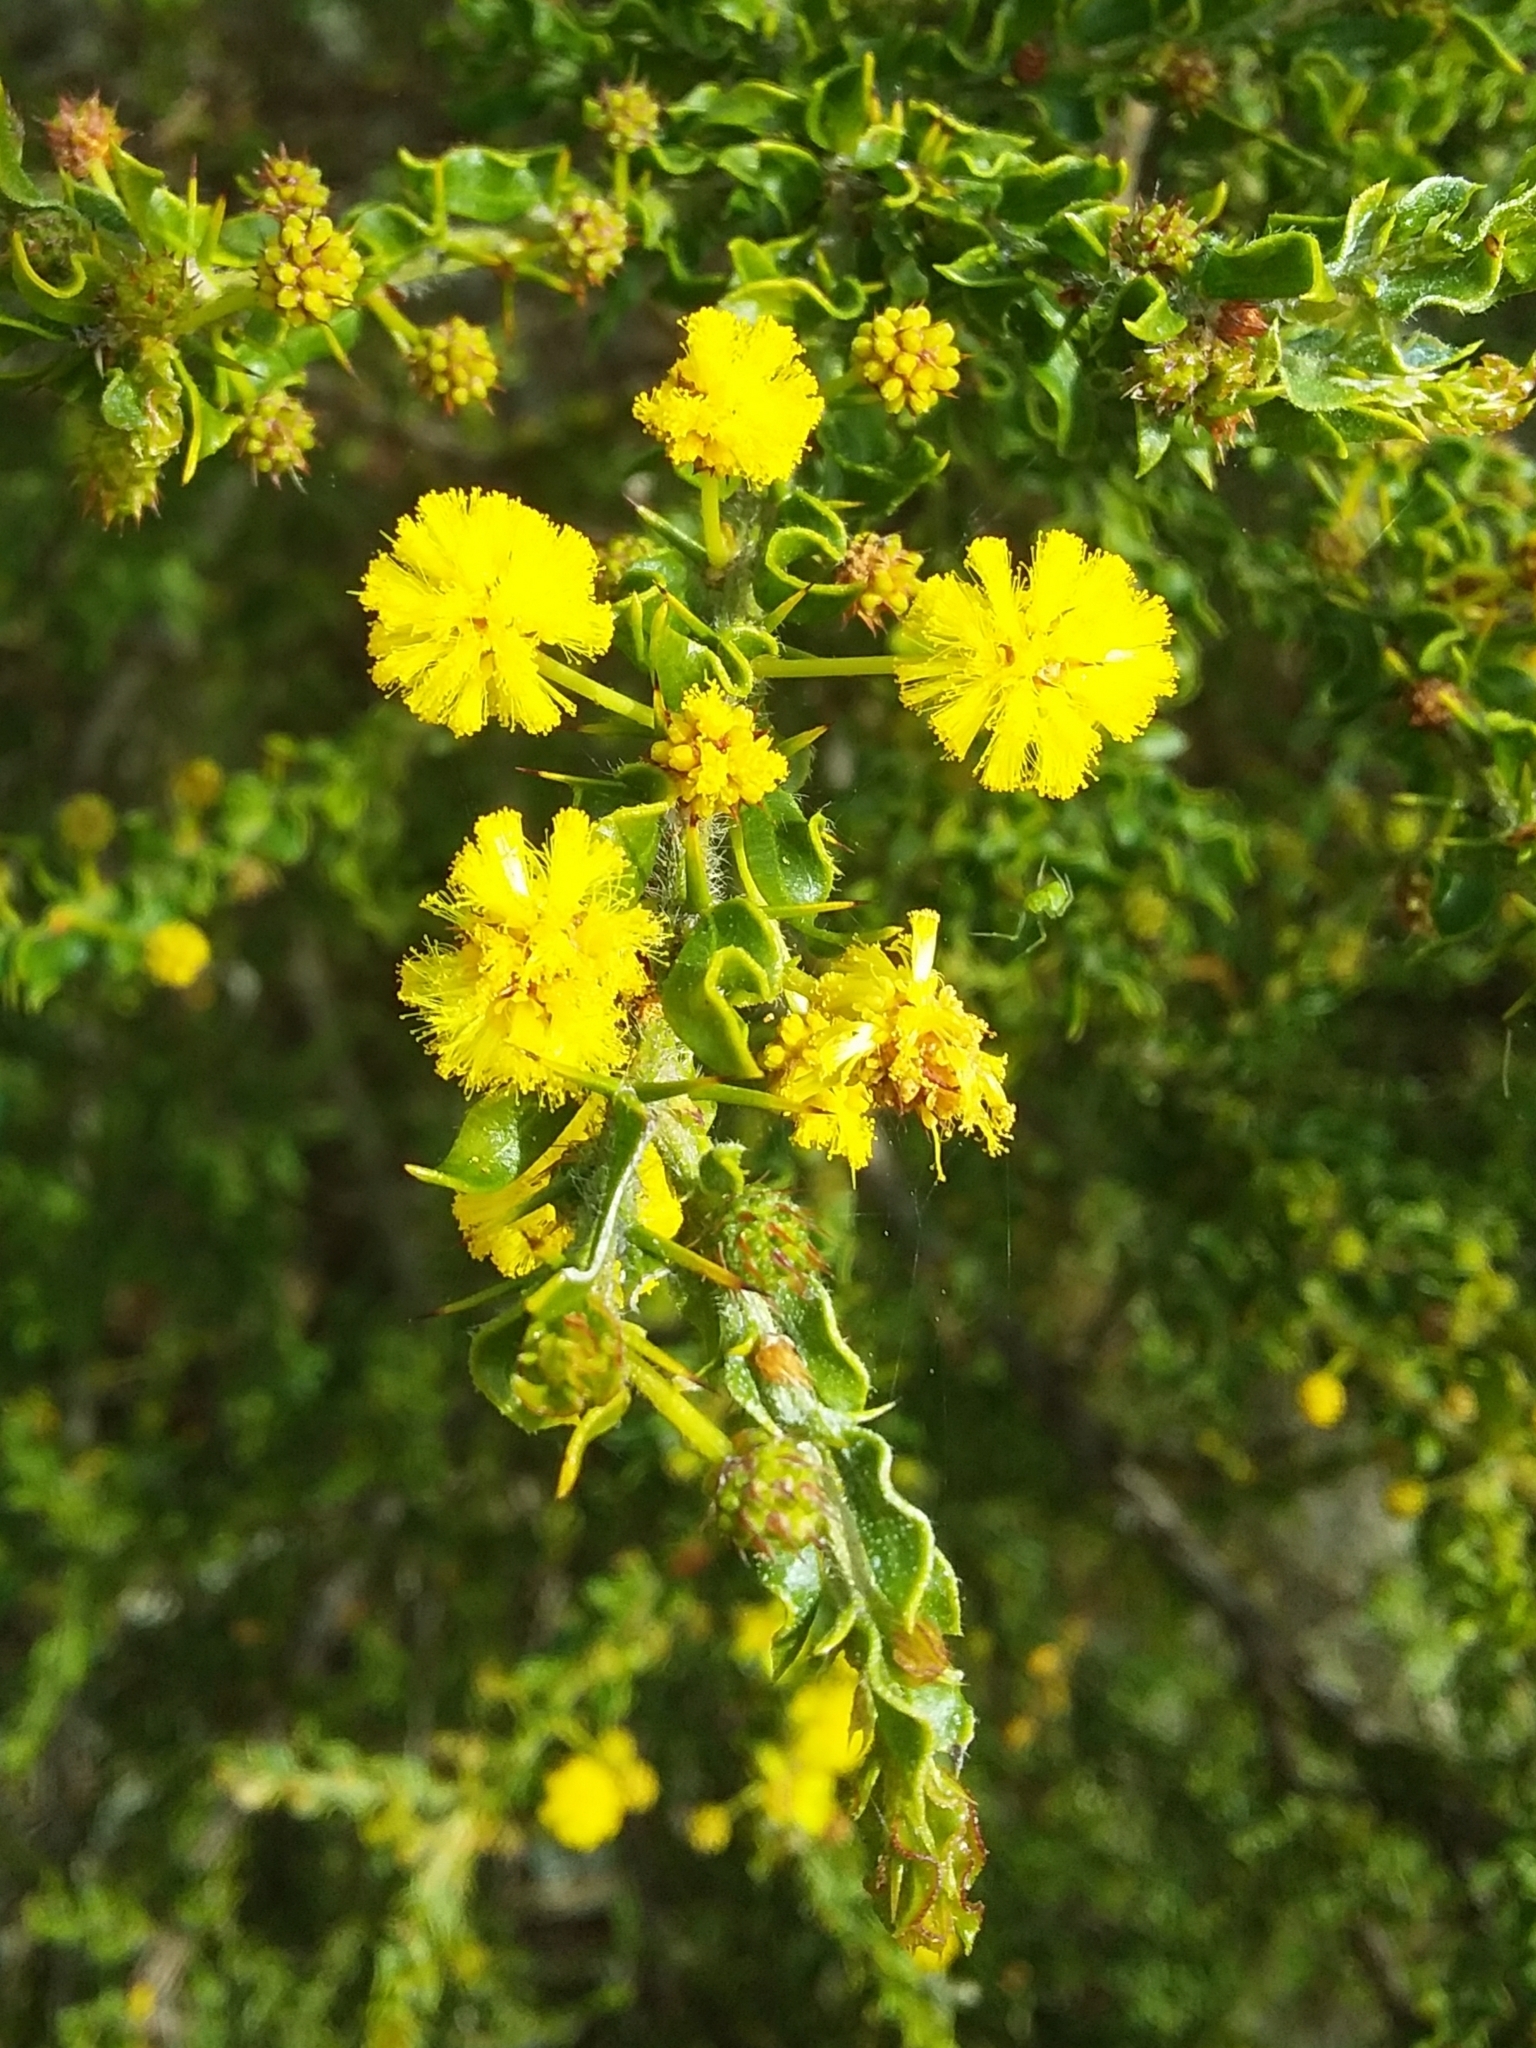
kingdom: Plantae
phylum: Tracheophyta
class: Magnoliopsida
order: Fabales
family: Fabaceae
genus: Acacia
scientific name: Acacia paradoxa
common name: Paradox acacia
